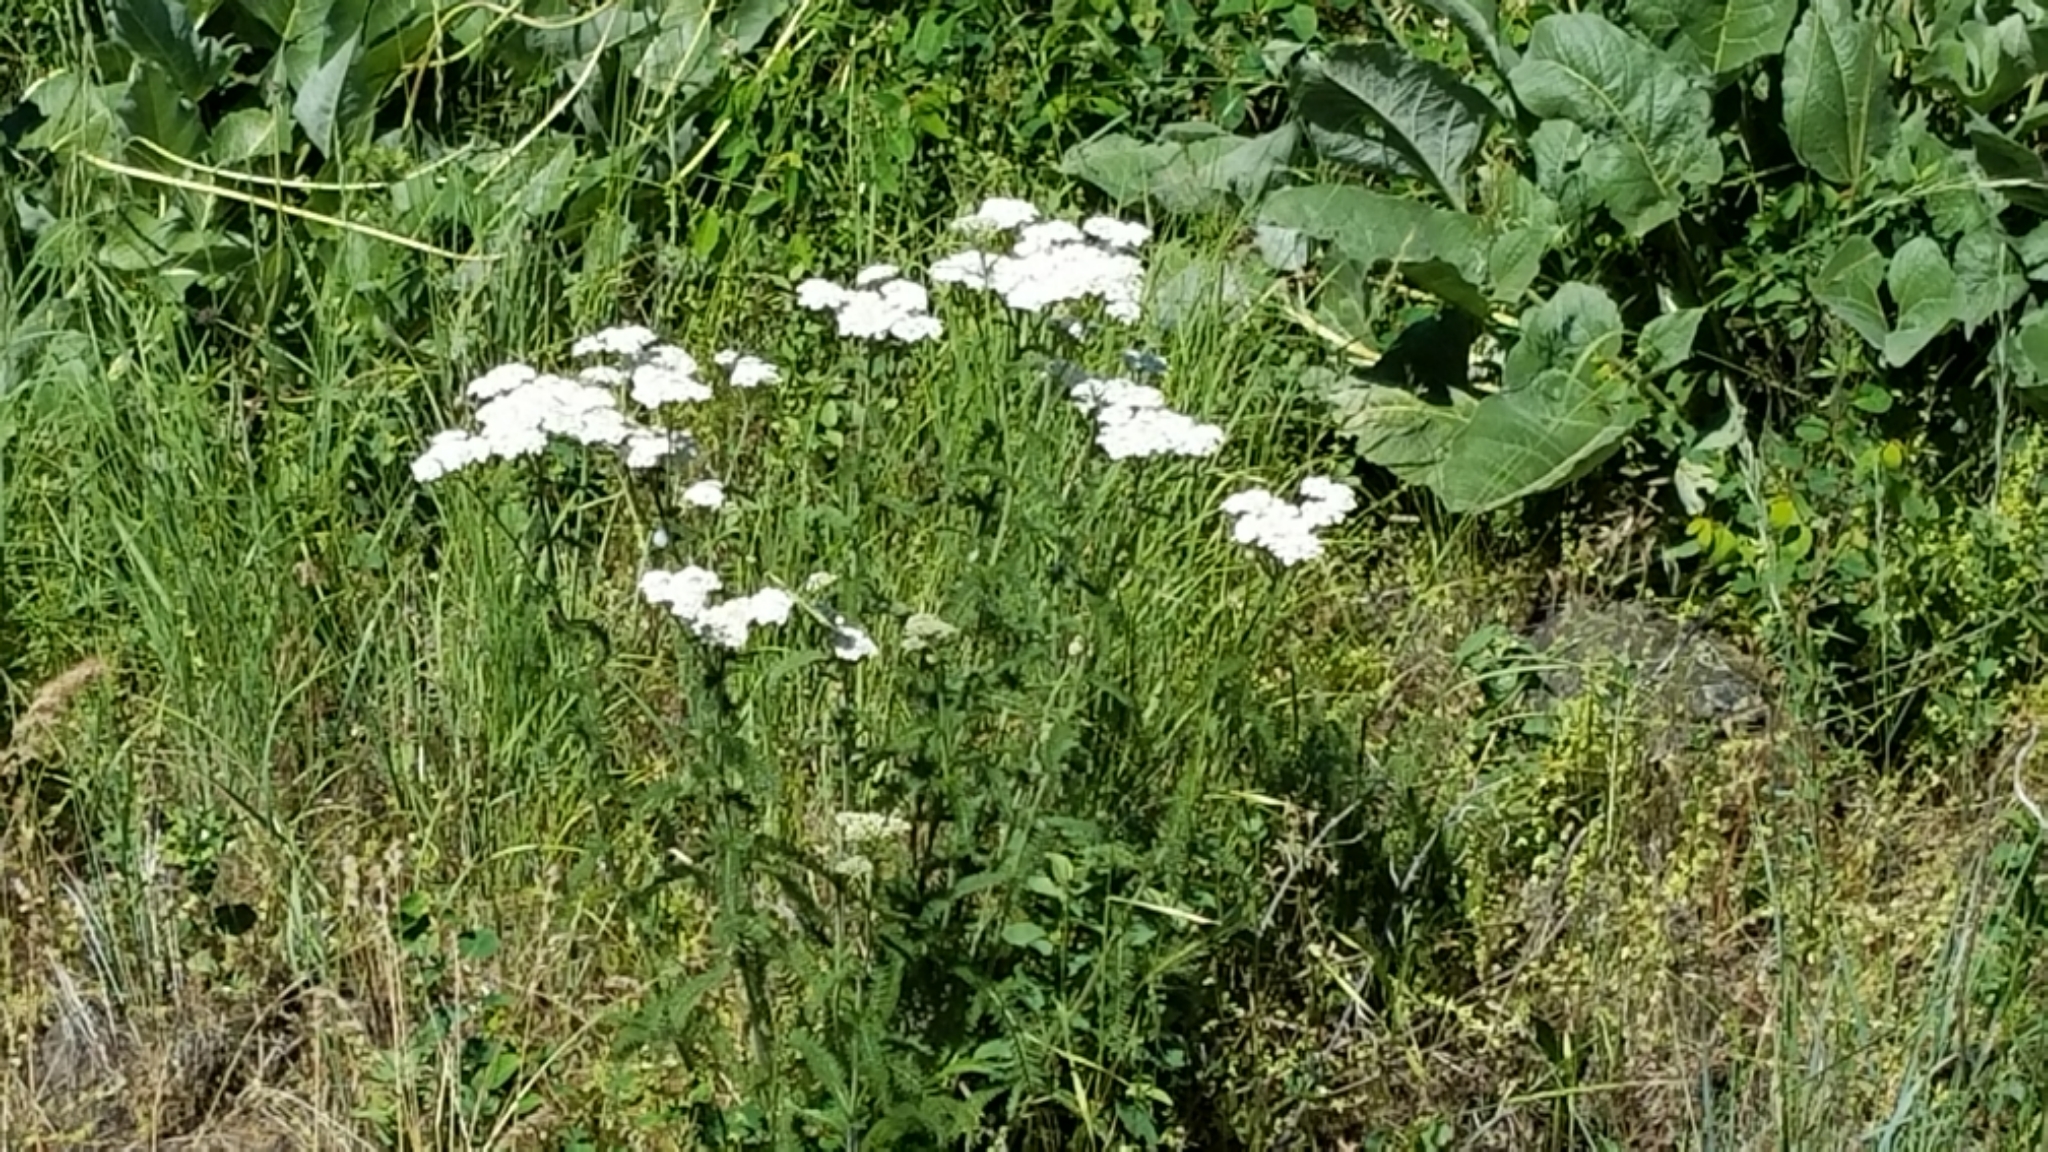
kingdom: Plantae
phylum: Tracheophyta
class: Magnoliopsida
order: Asterales
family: Asteraceae
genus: Achillea
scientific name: Achillea millefolium
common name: Yarrow
